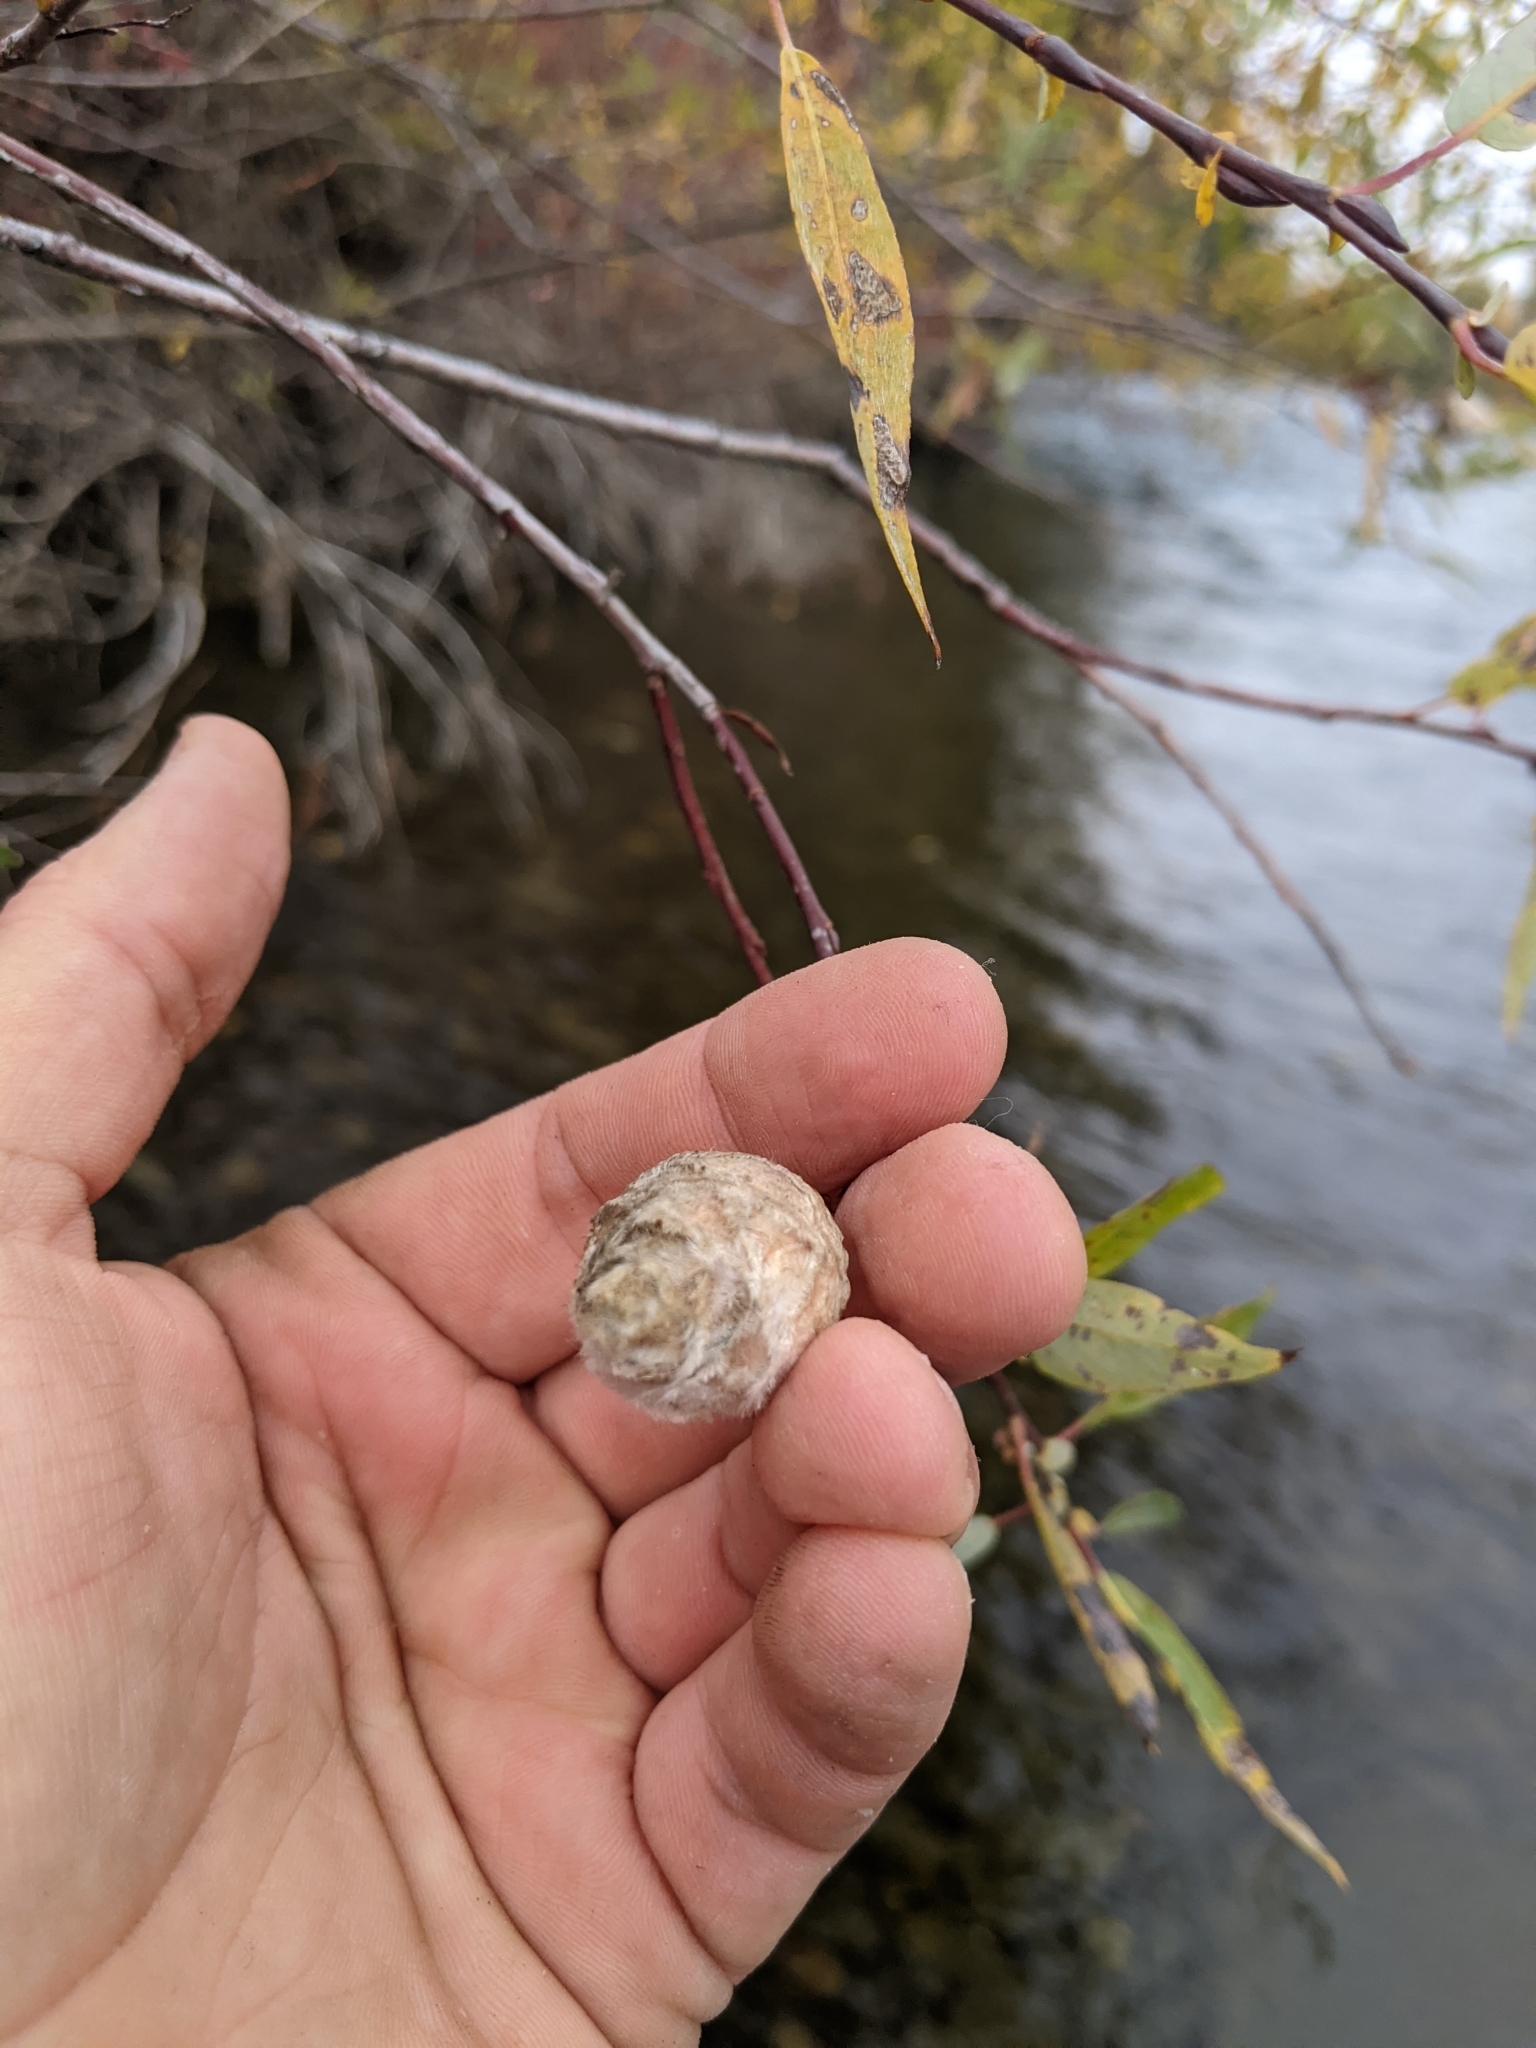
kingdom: Animalia
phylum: Arthropoda
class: Insecta
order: Diptera
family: Cecidomyiidae
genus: Rabdophaga
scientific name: Rabdophaga strobiloides
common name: Willow pinecone gall midge
